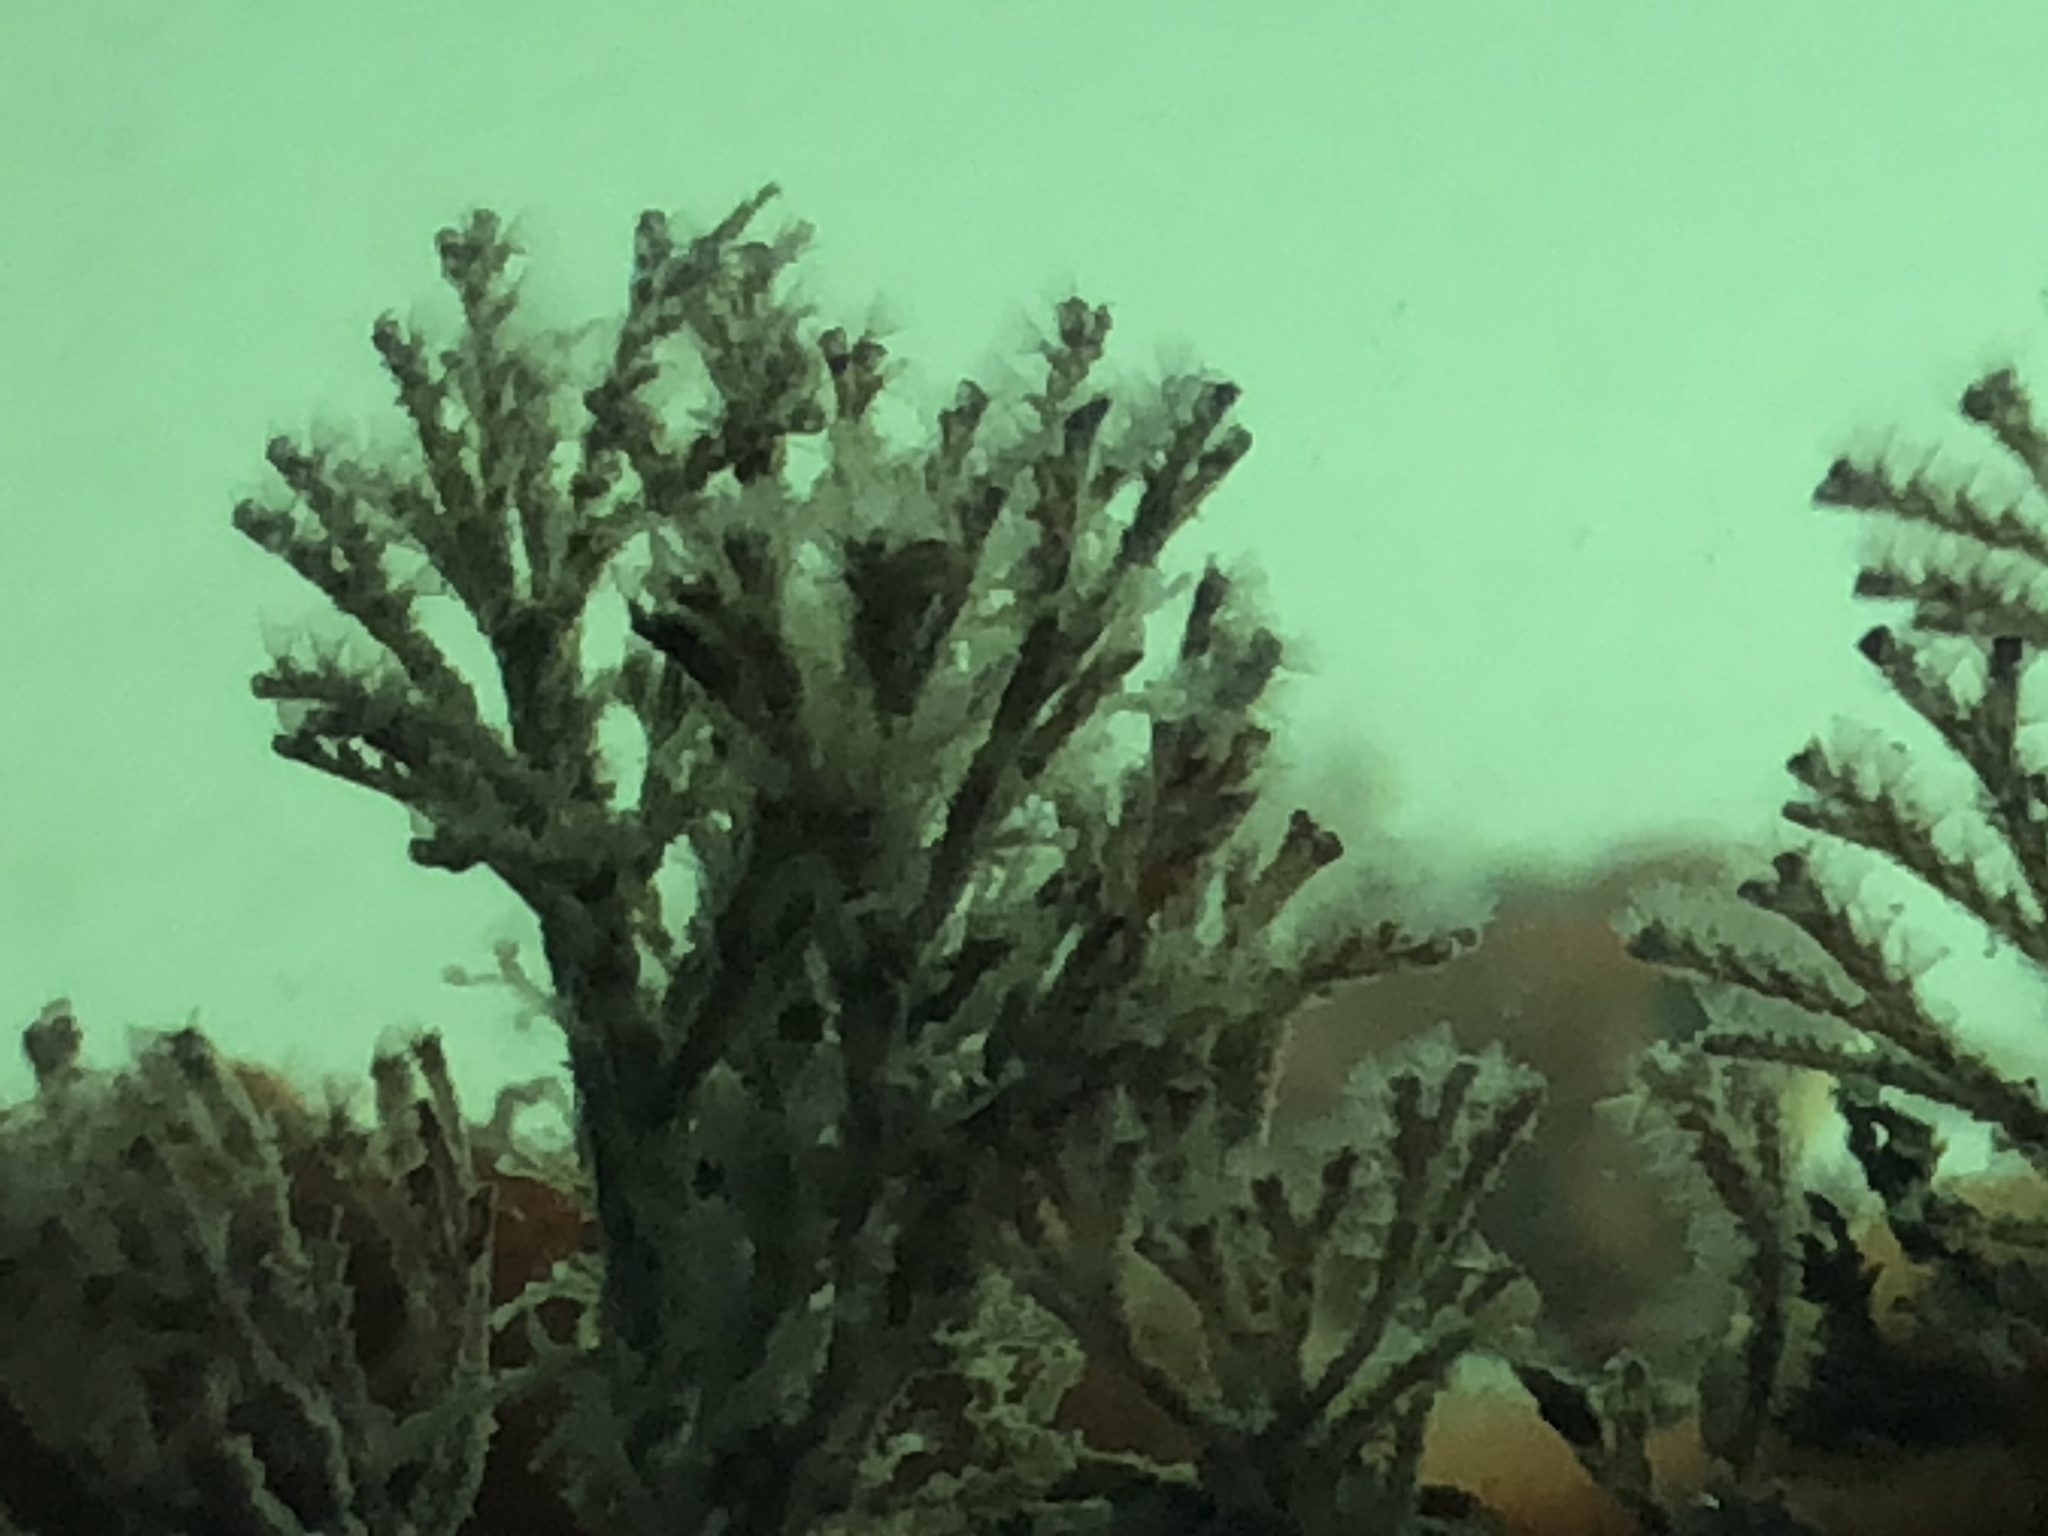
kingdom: Animalia
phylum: Bryozoa
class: Gymnolaemata
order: Cheilostomatida
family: Bugulidae
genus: Bugula
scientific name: Bugula neritina
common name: Brown bryozoan
